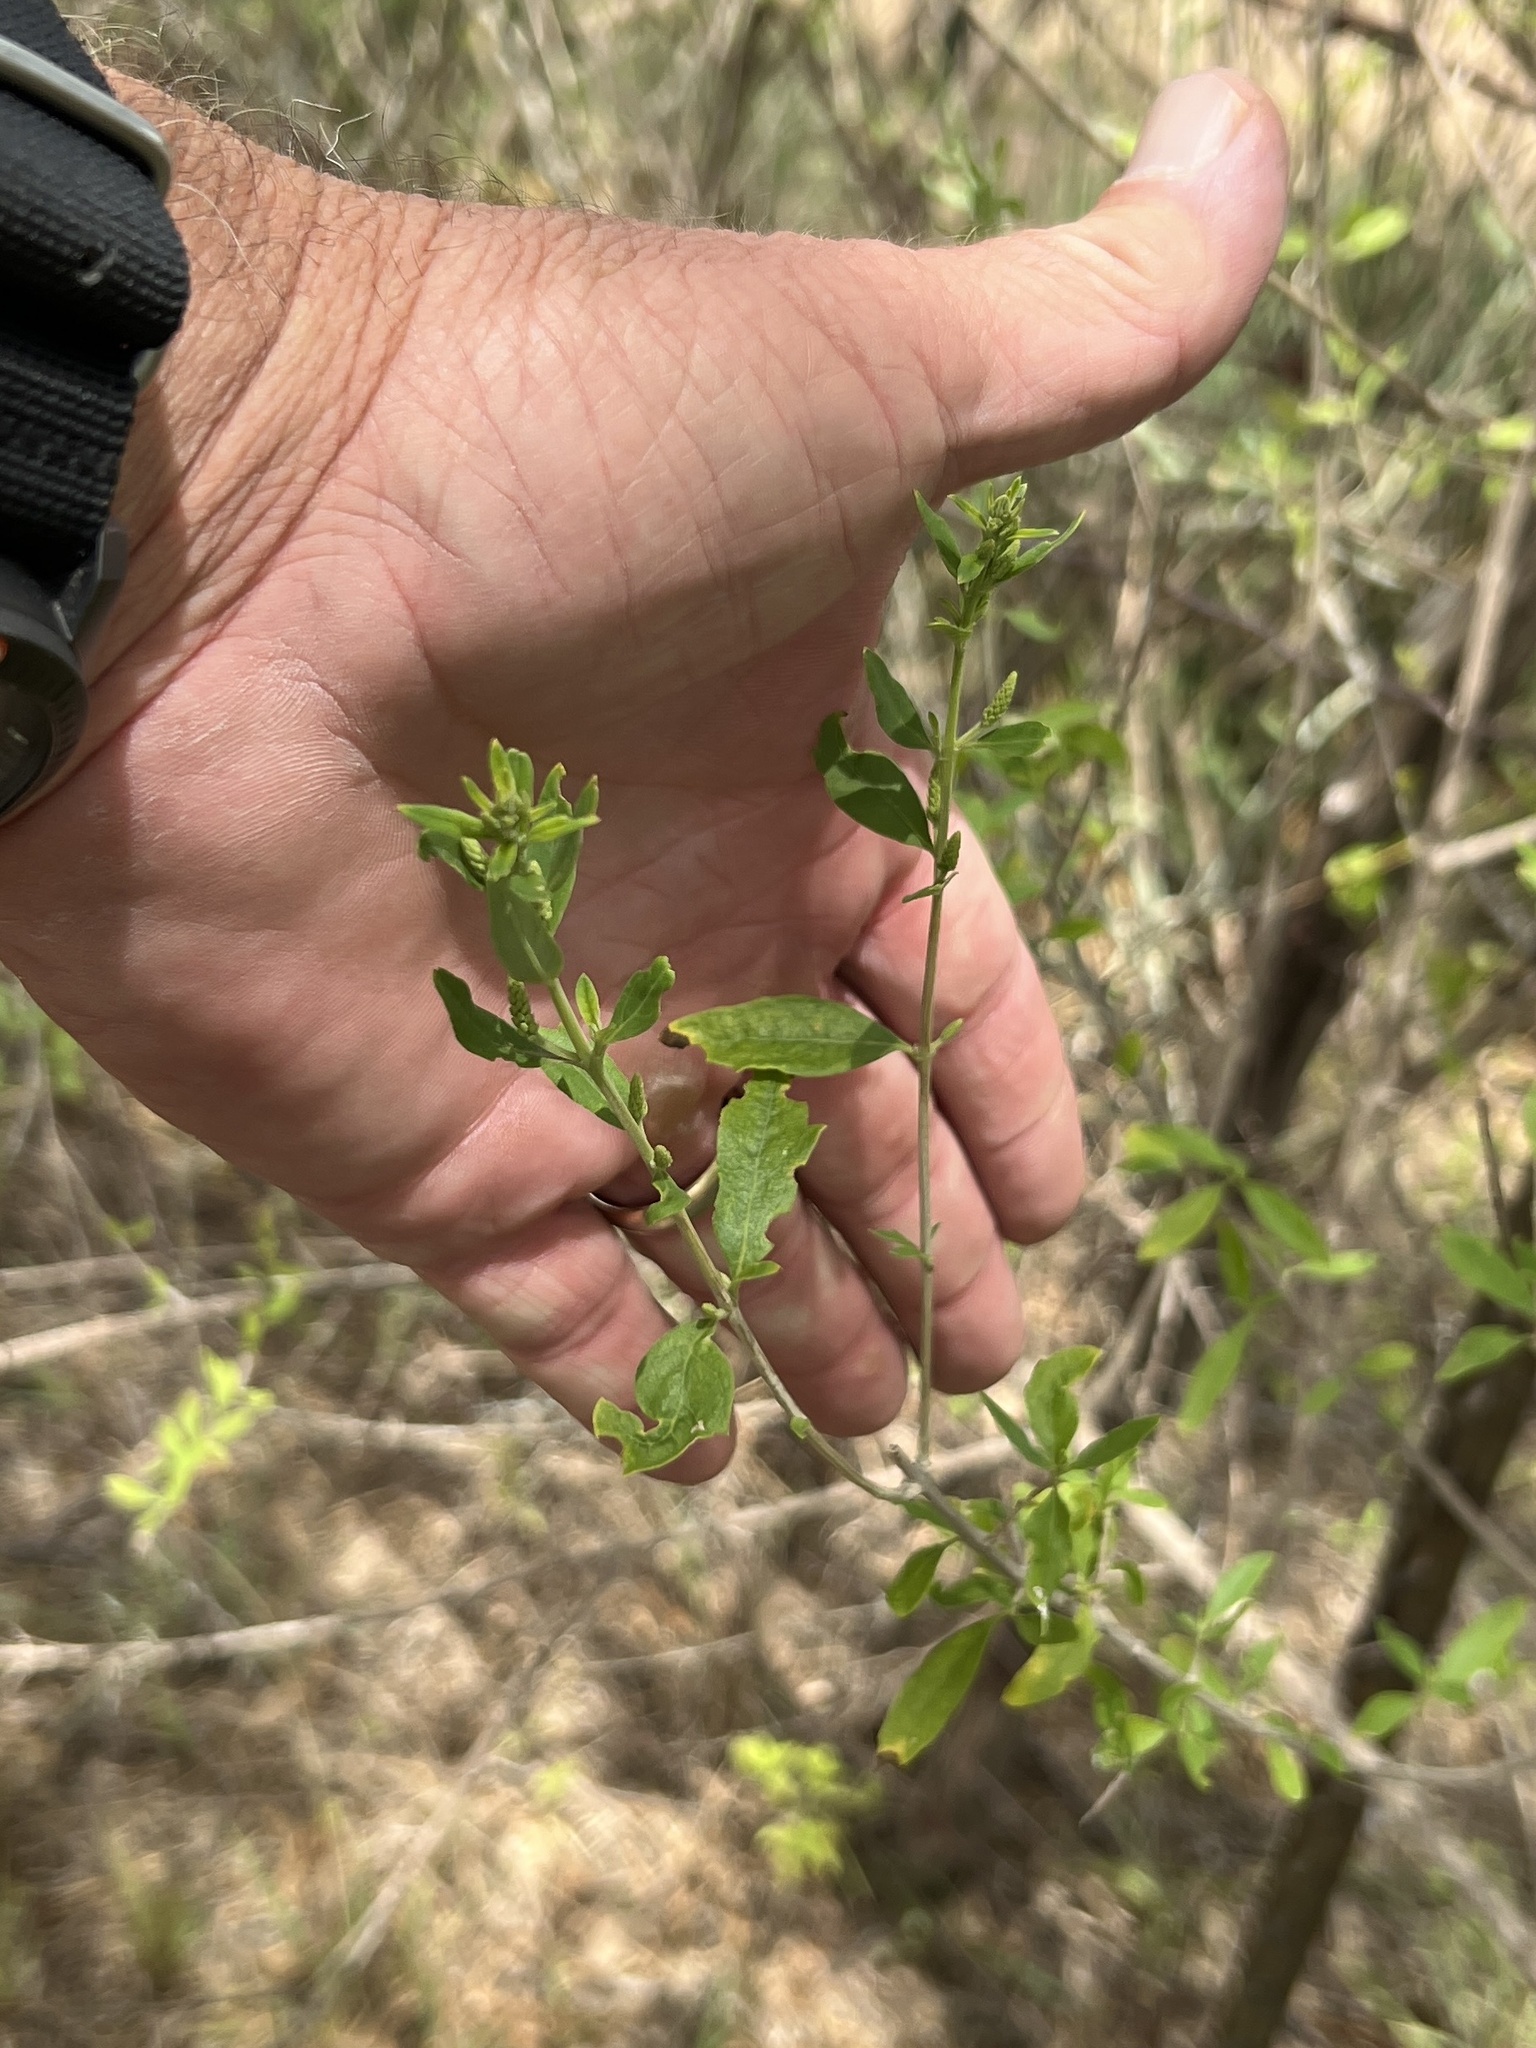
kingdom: Plantae
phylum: Tracheophyta
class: Magnoliopsida
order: Lamiales
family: Verbenaceae
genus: Aloysia
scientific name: Aloysia gratissima
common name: Common bee-brush
